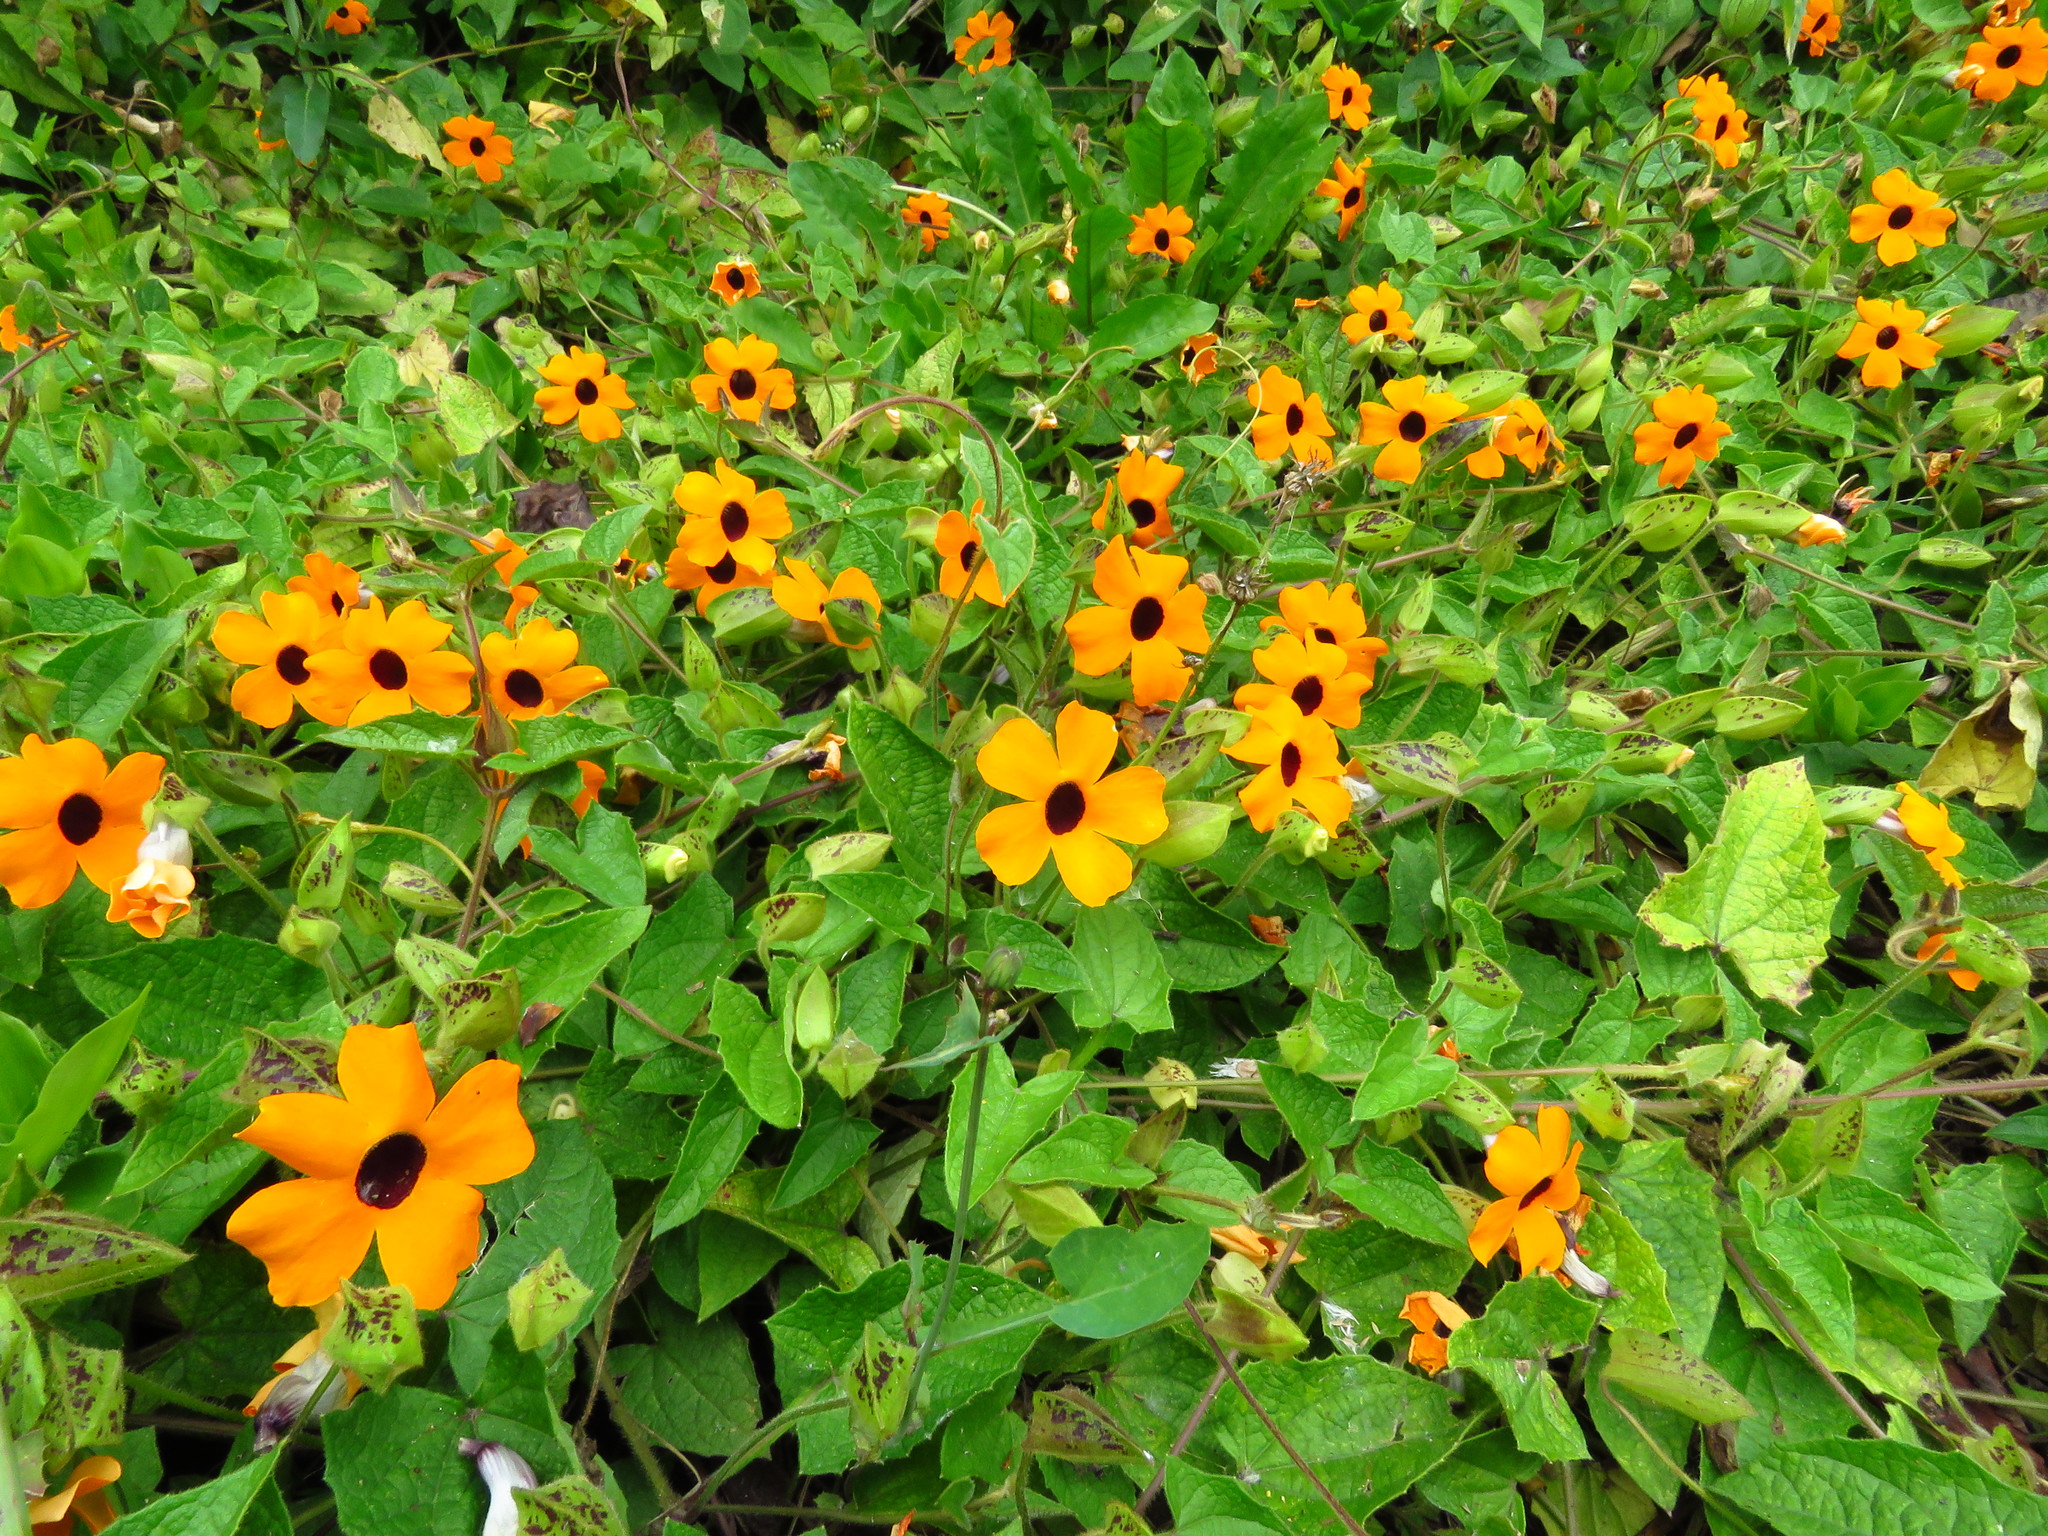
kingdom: Plantae
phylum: Tracheophyta
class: Magnoliopsida
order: Lamiales
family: Acanthaceae
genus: Thunbergia
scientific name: Thunbergia alata
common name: Blackeyed susan vine
